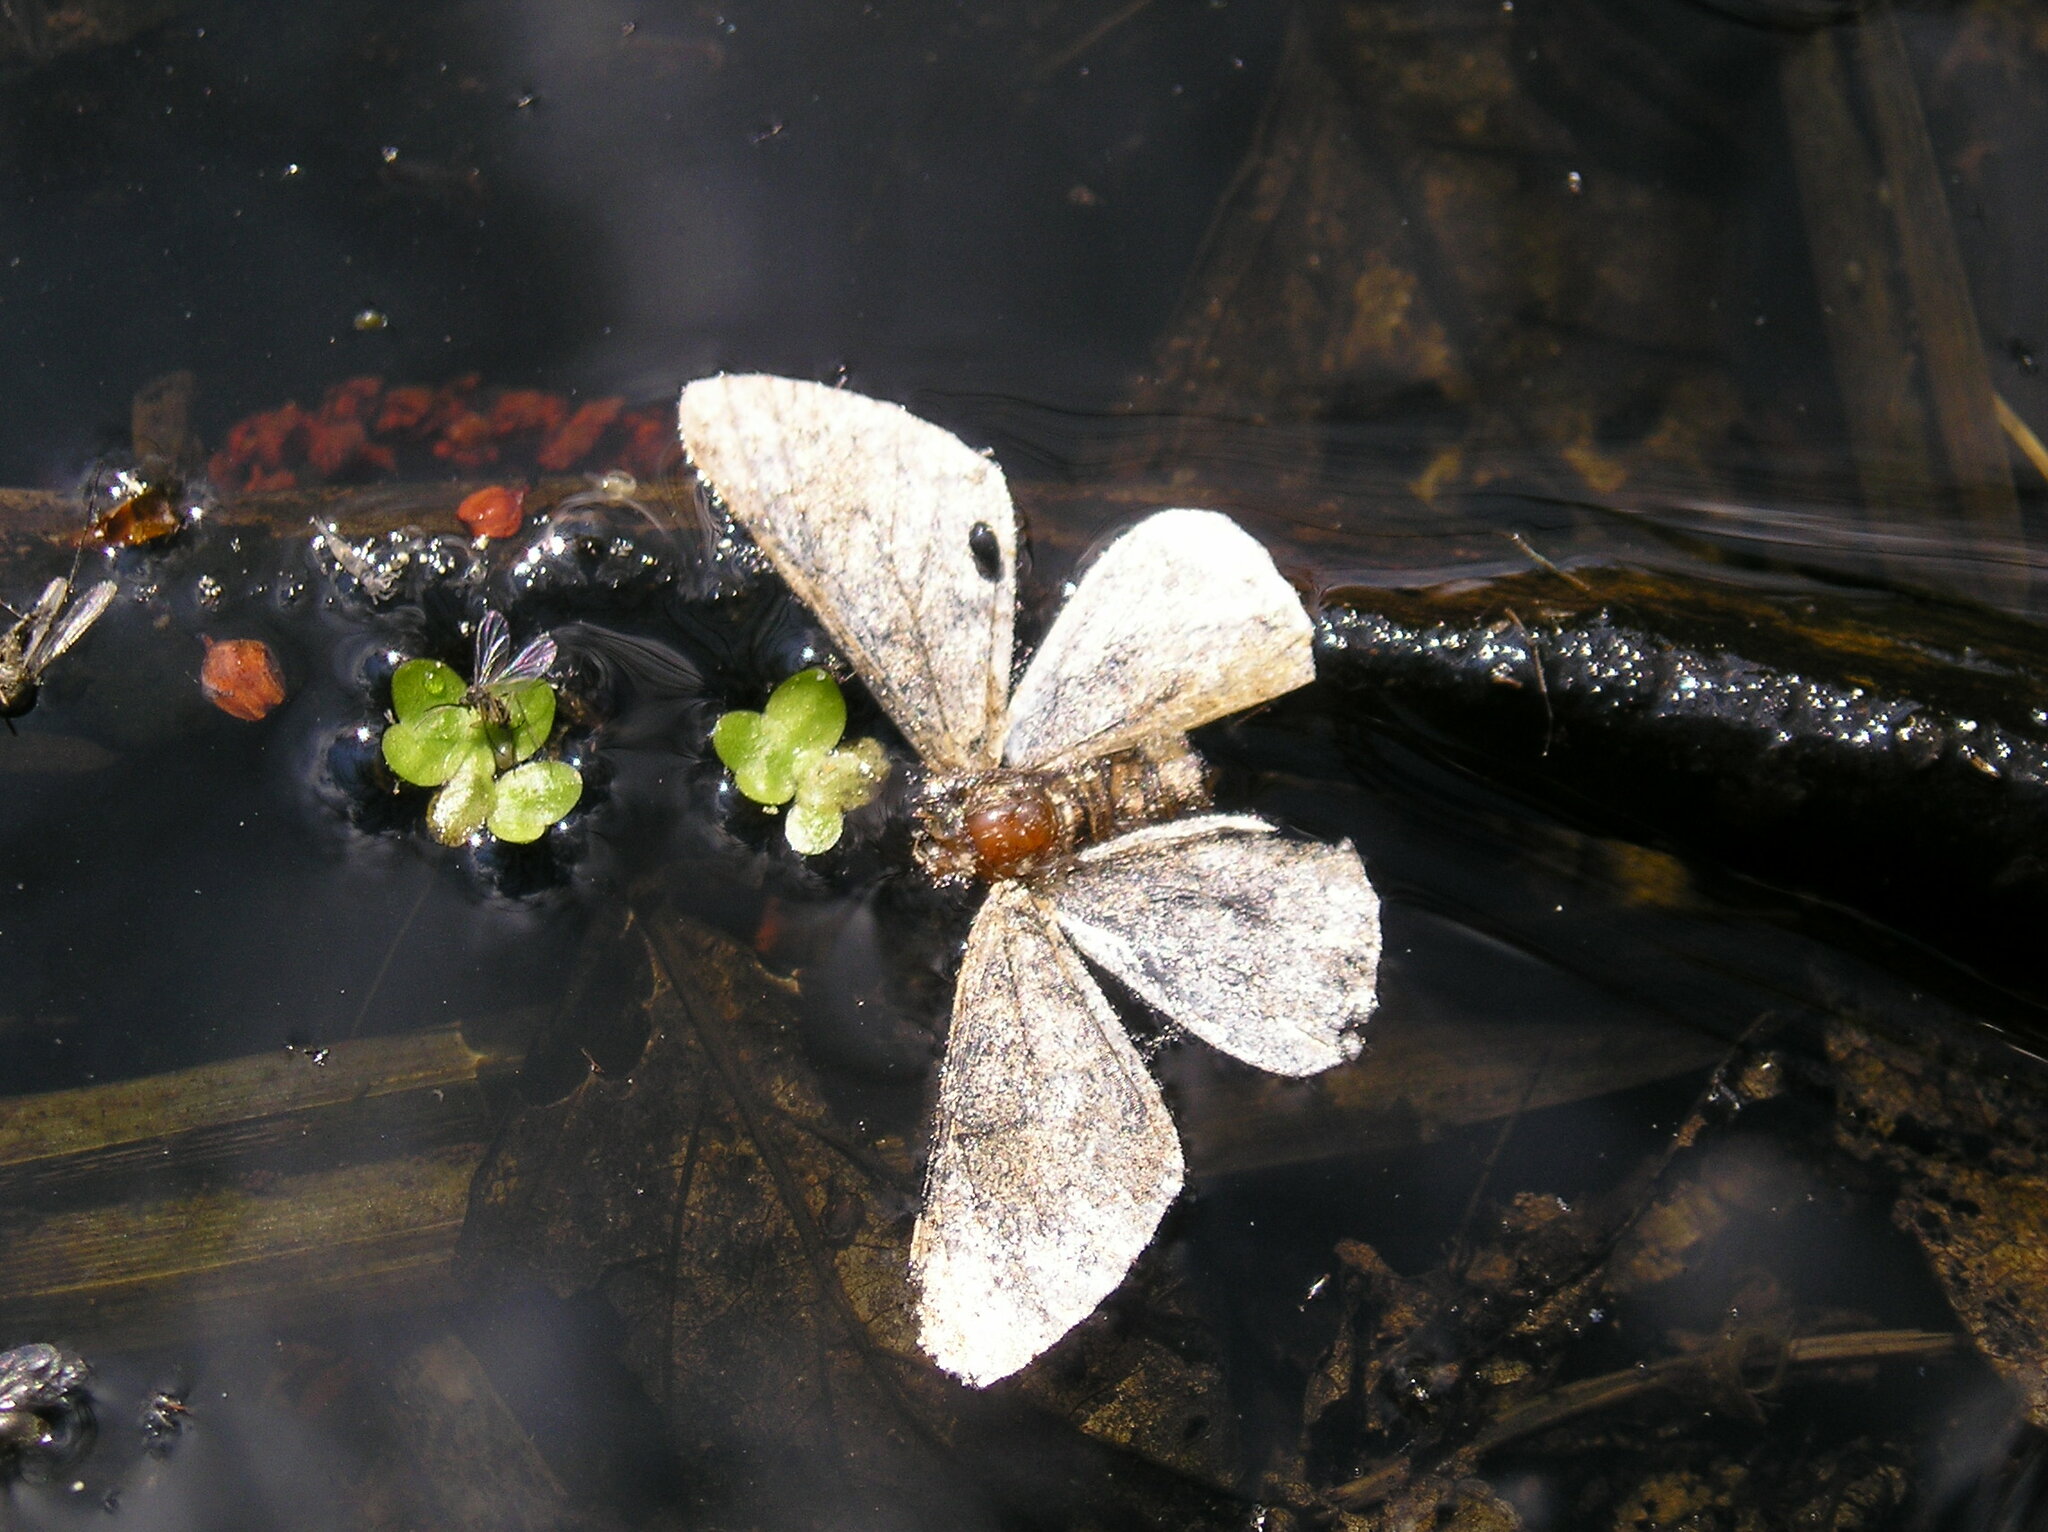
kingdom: Animalia
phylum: Arthropoda
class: Insecta
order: Lepidoptera
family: Geometridae
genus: Biston
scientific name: Biston strataria
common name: Oak beauty
